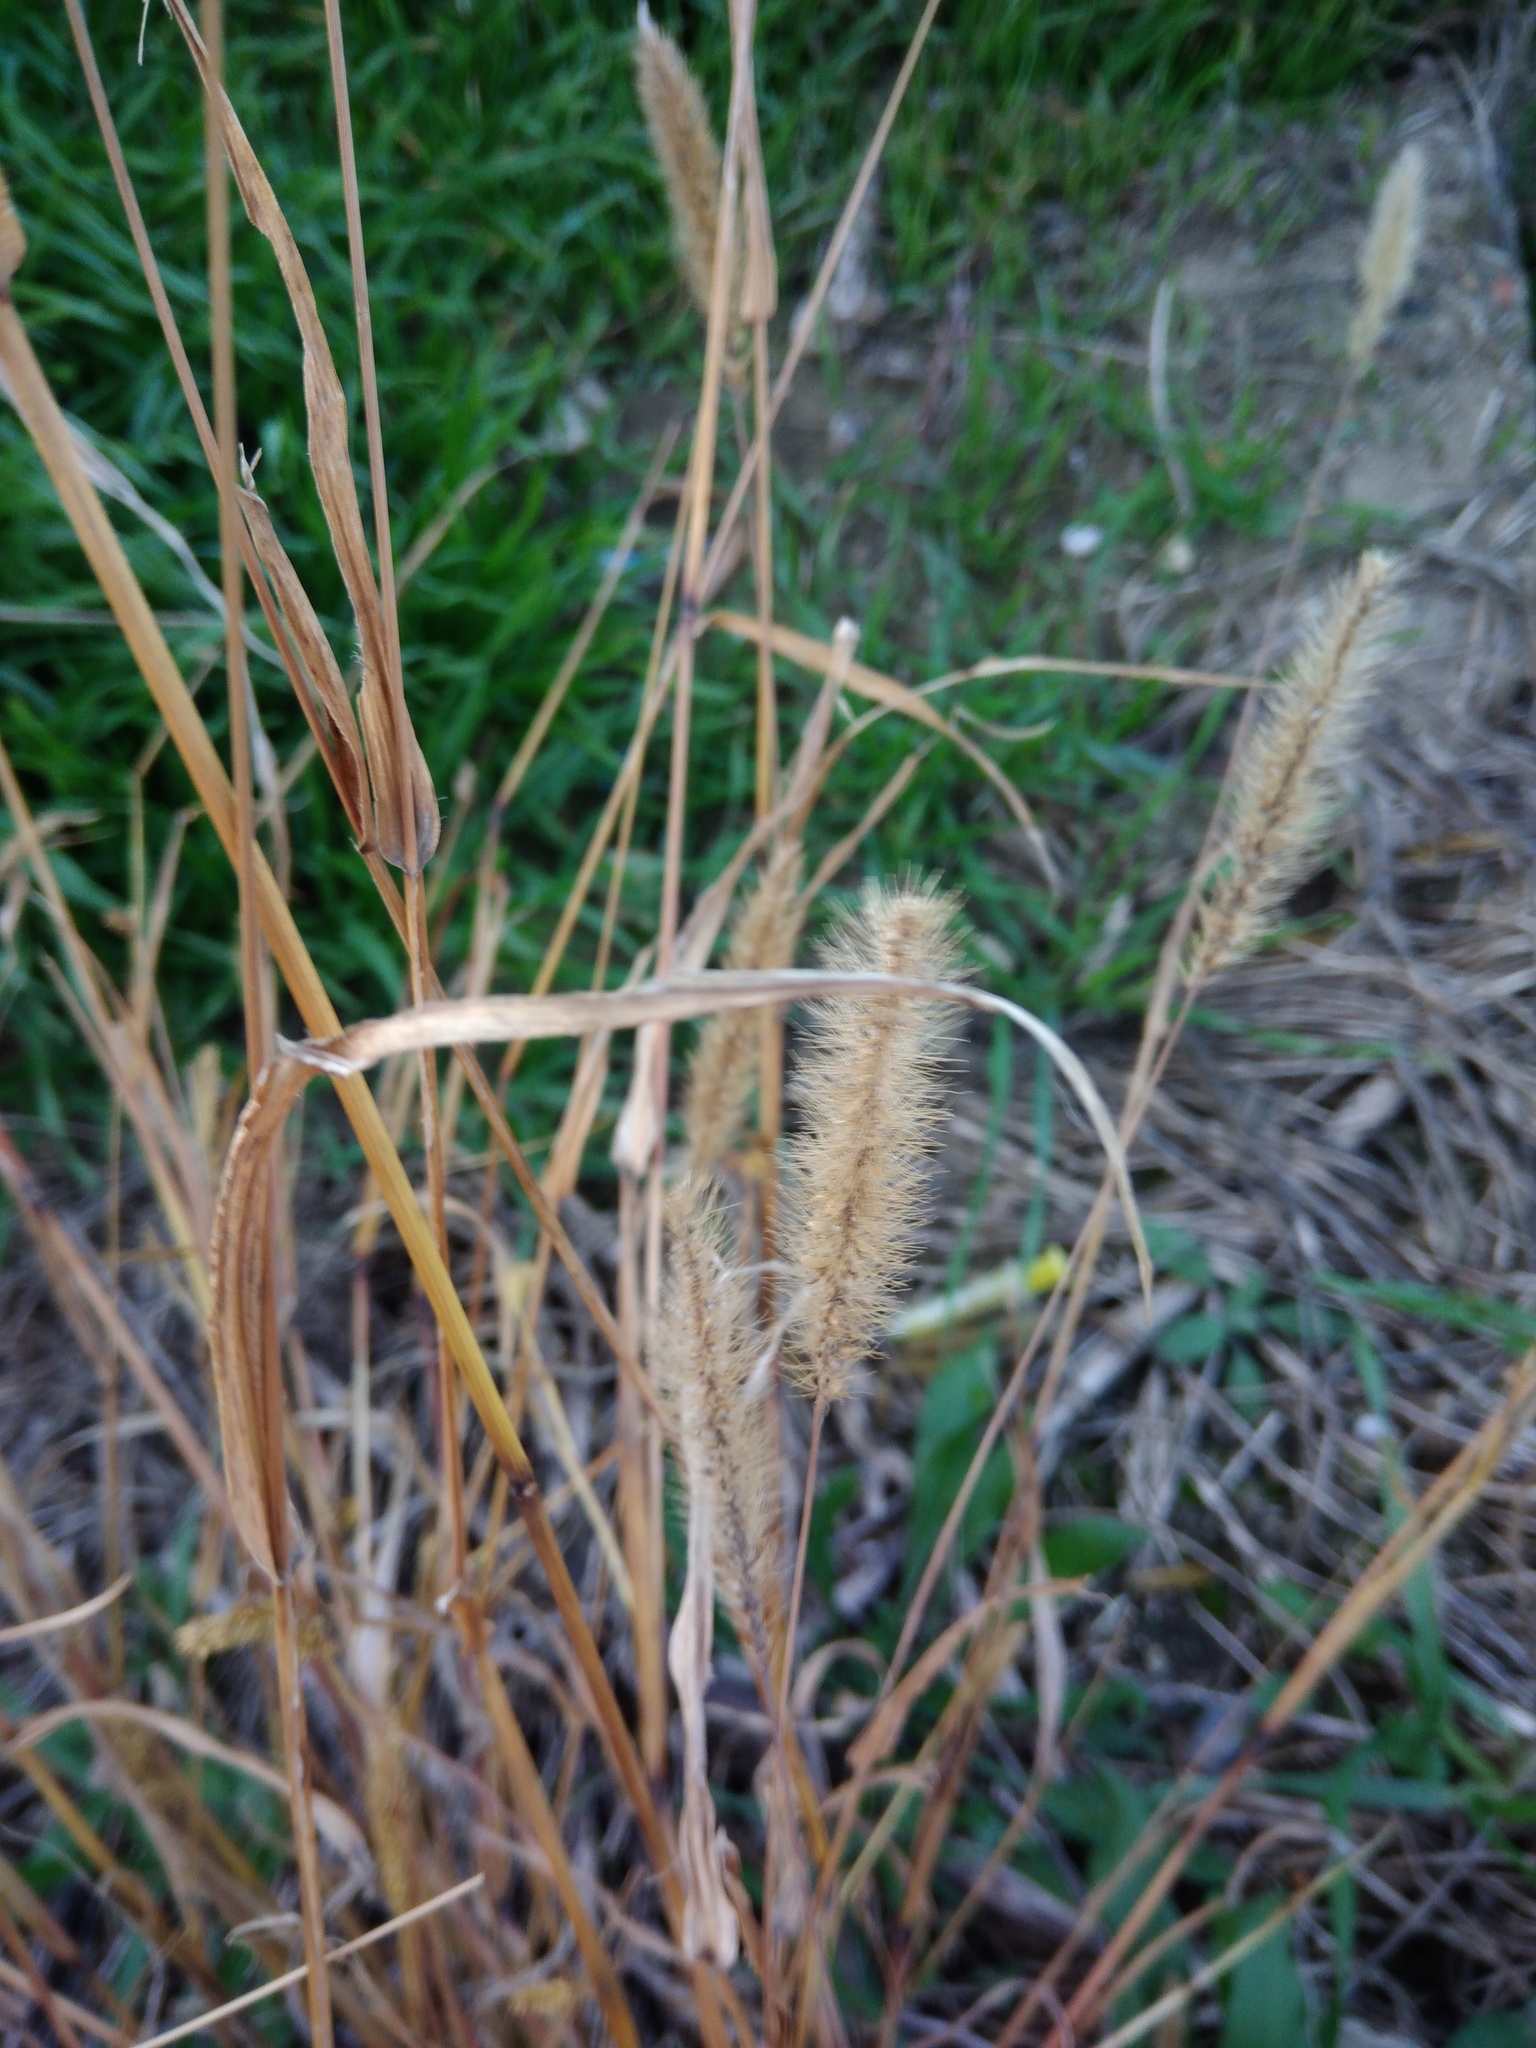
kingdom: Plantae
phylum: Tracheophyta
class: Liliopsida
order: Poales
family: Poaceae
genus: Setaria
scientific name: Setaria viridis
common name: Green bristlegrass
